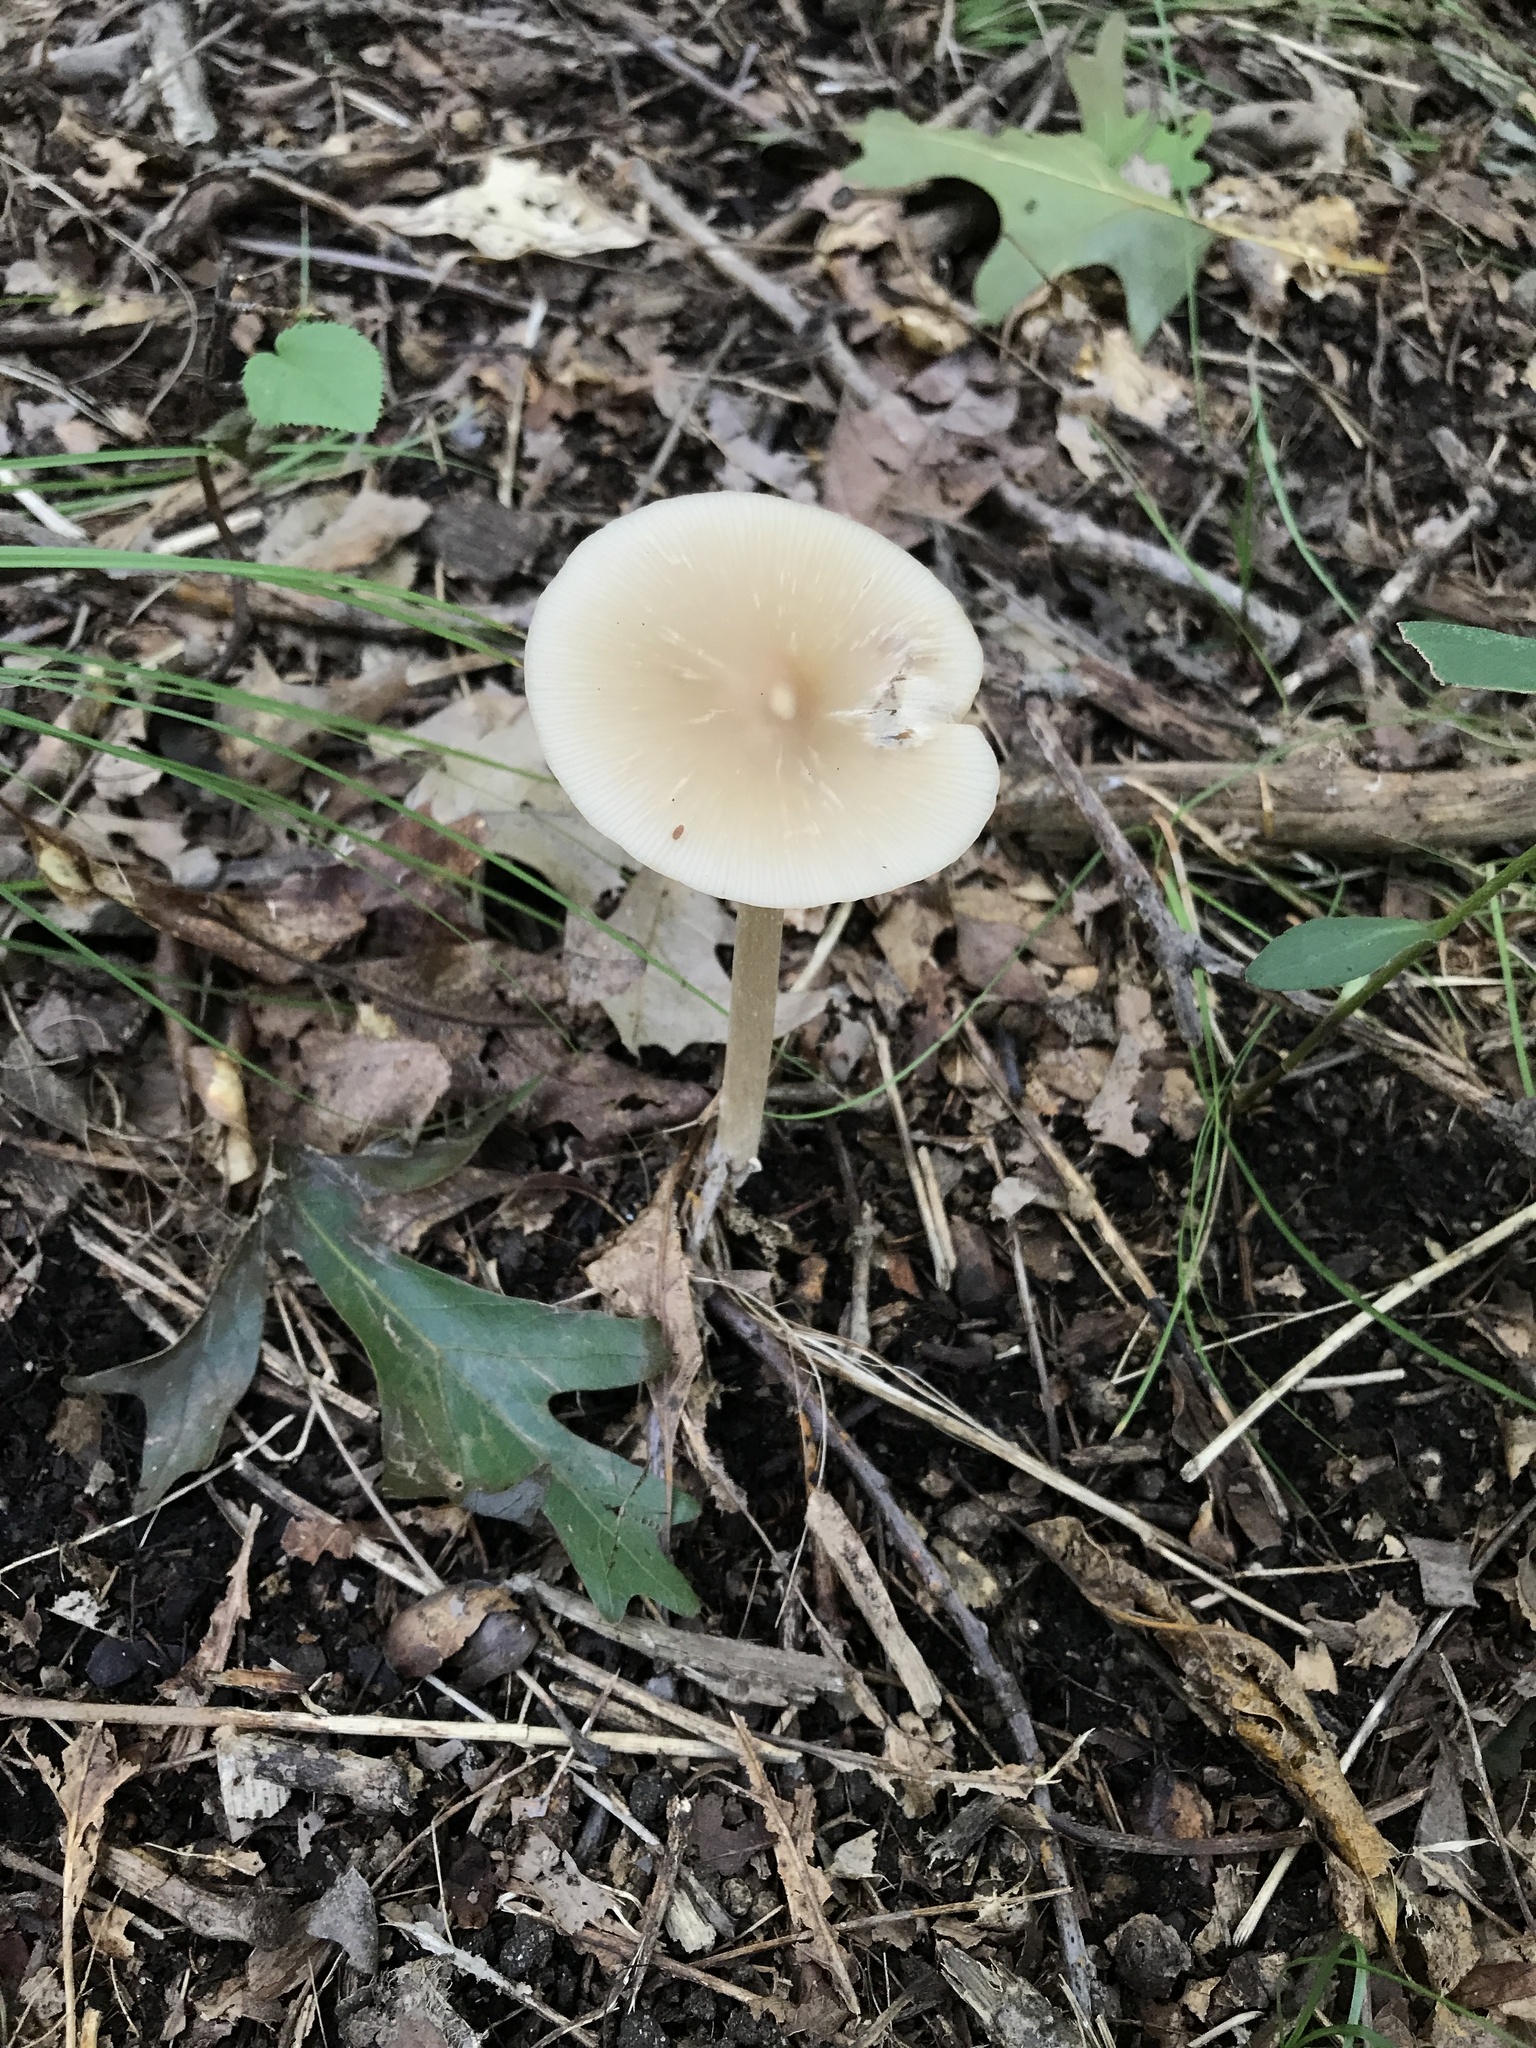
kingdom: Fungi
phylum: Basidiomycota
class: Agaricomycetes
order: Agaricales
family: Entolomataceae
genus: Entoloma
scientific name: Entoloma strictius
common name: Straight-stalked entoloma
